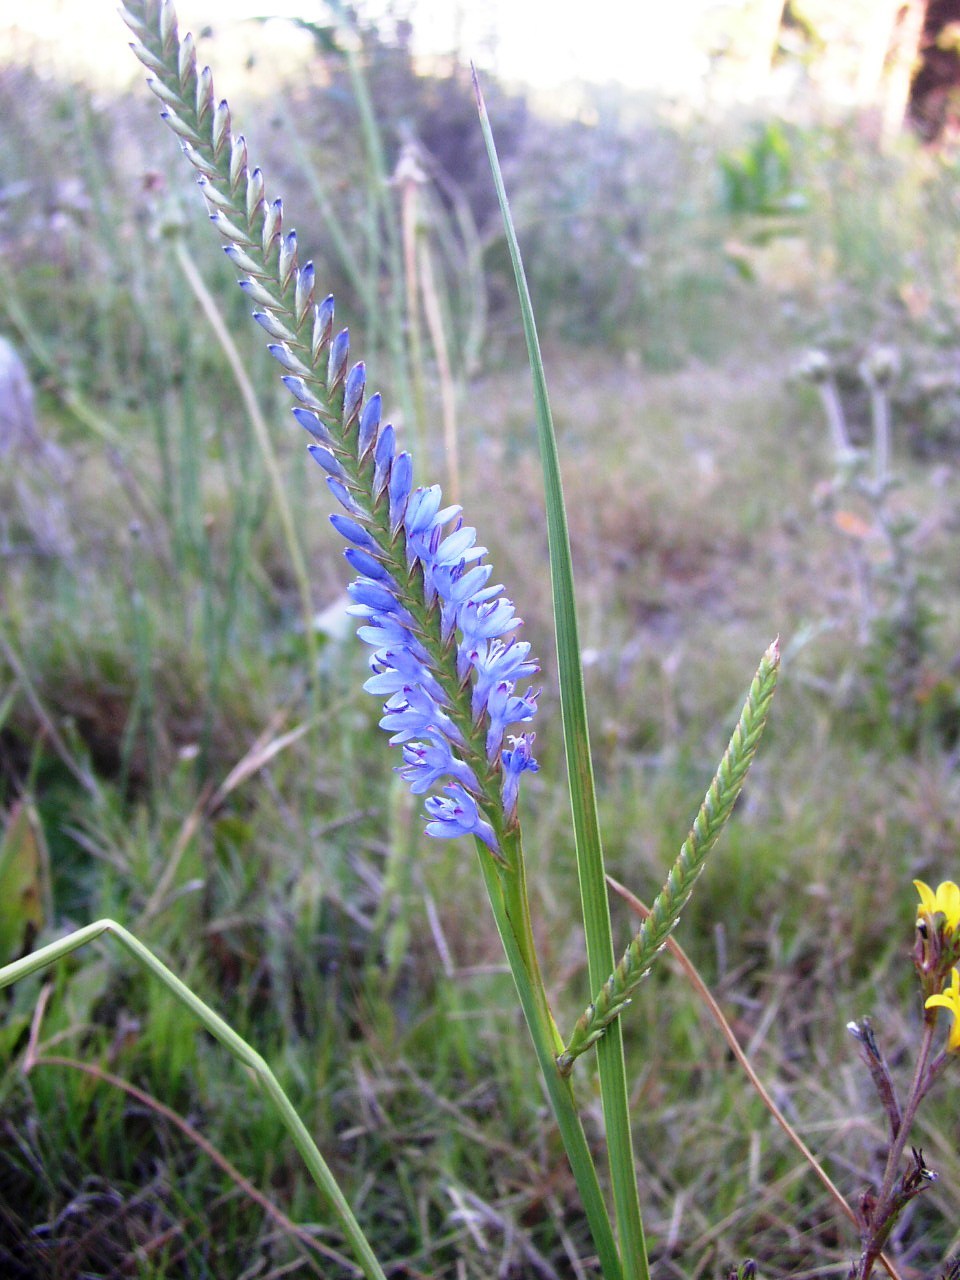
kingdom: Plantae
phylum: Tracheophyta
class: Liliopsida
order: Asparagales
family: Iridaceae
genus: Micranthus
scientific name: Micranthus alopecuroides
